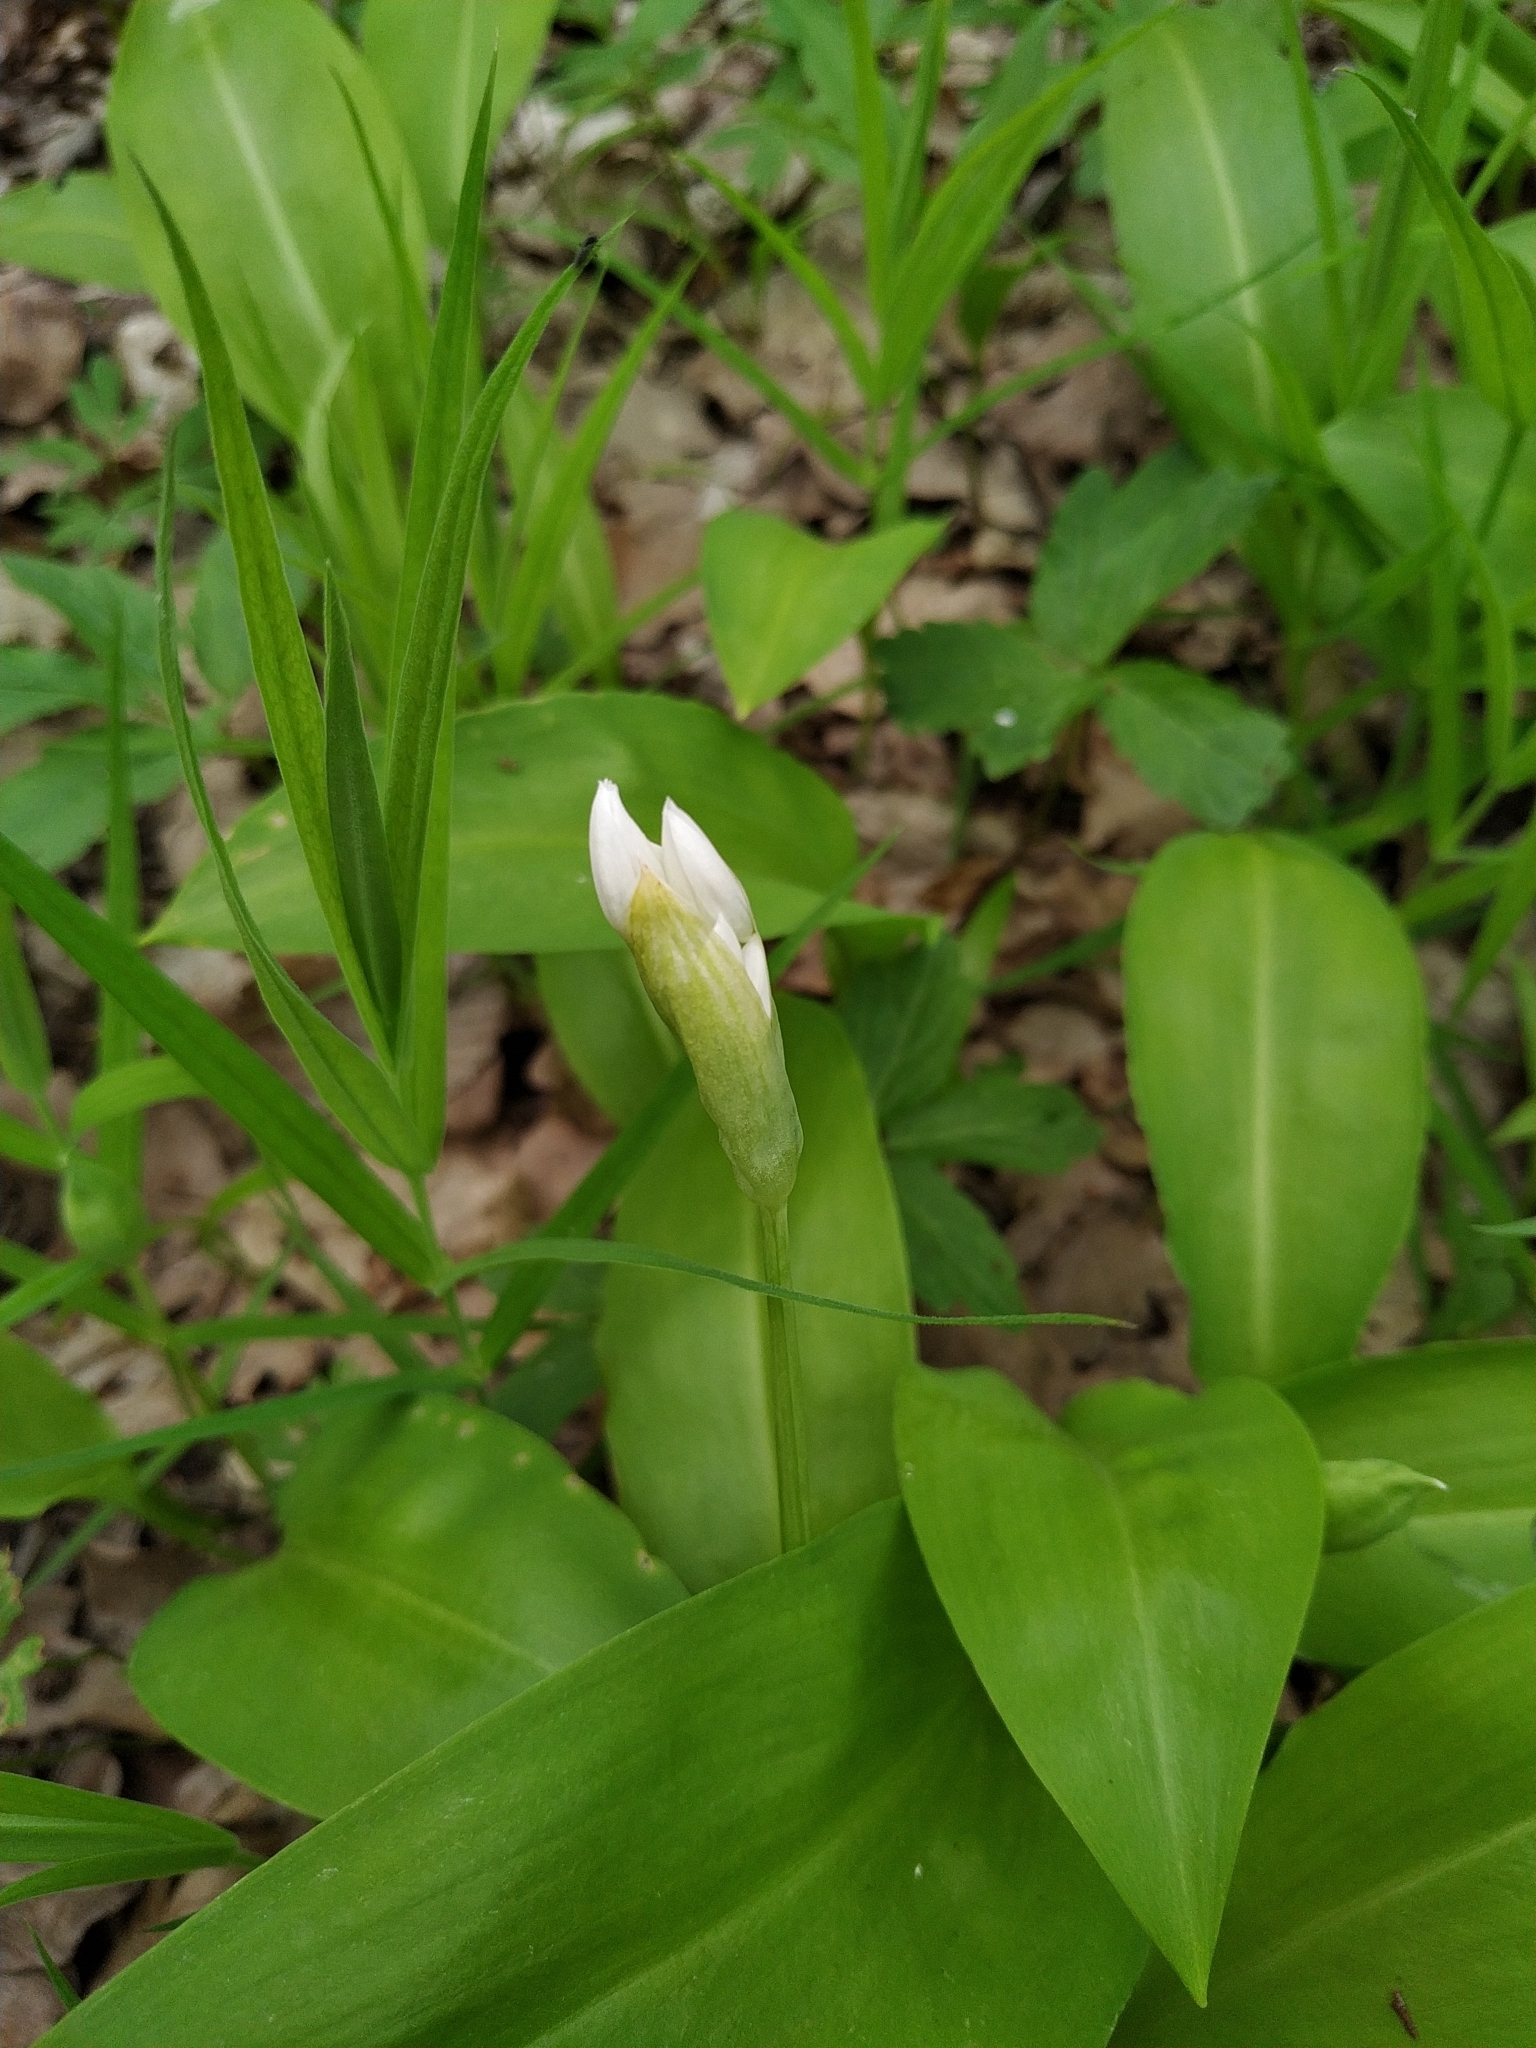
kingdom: Plantae
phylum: Tracheophyta
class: Liliopsida
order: Asparagales
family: Amaryllidaceae
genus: Allium
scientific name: Allium ursinum
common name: Ramsons
